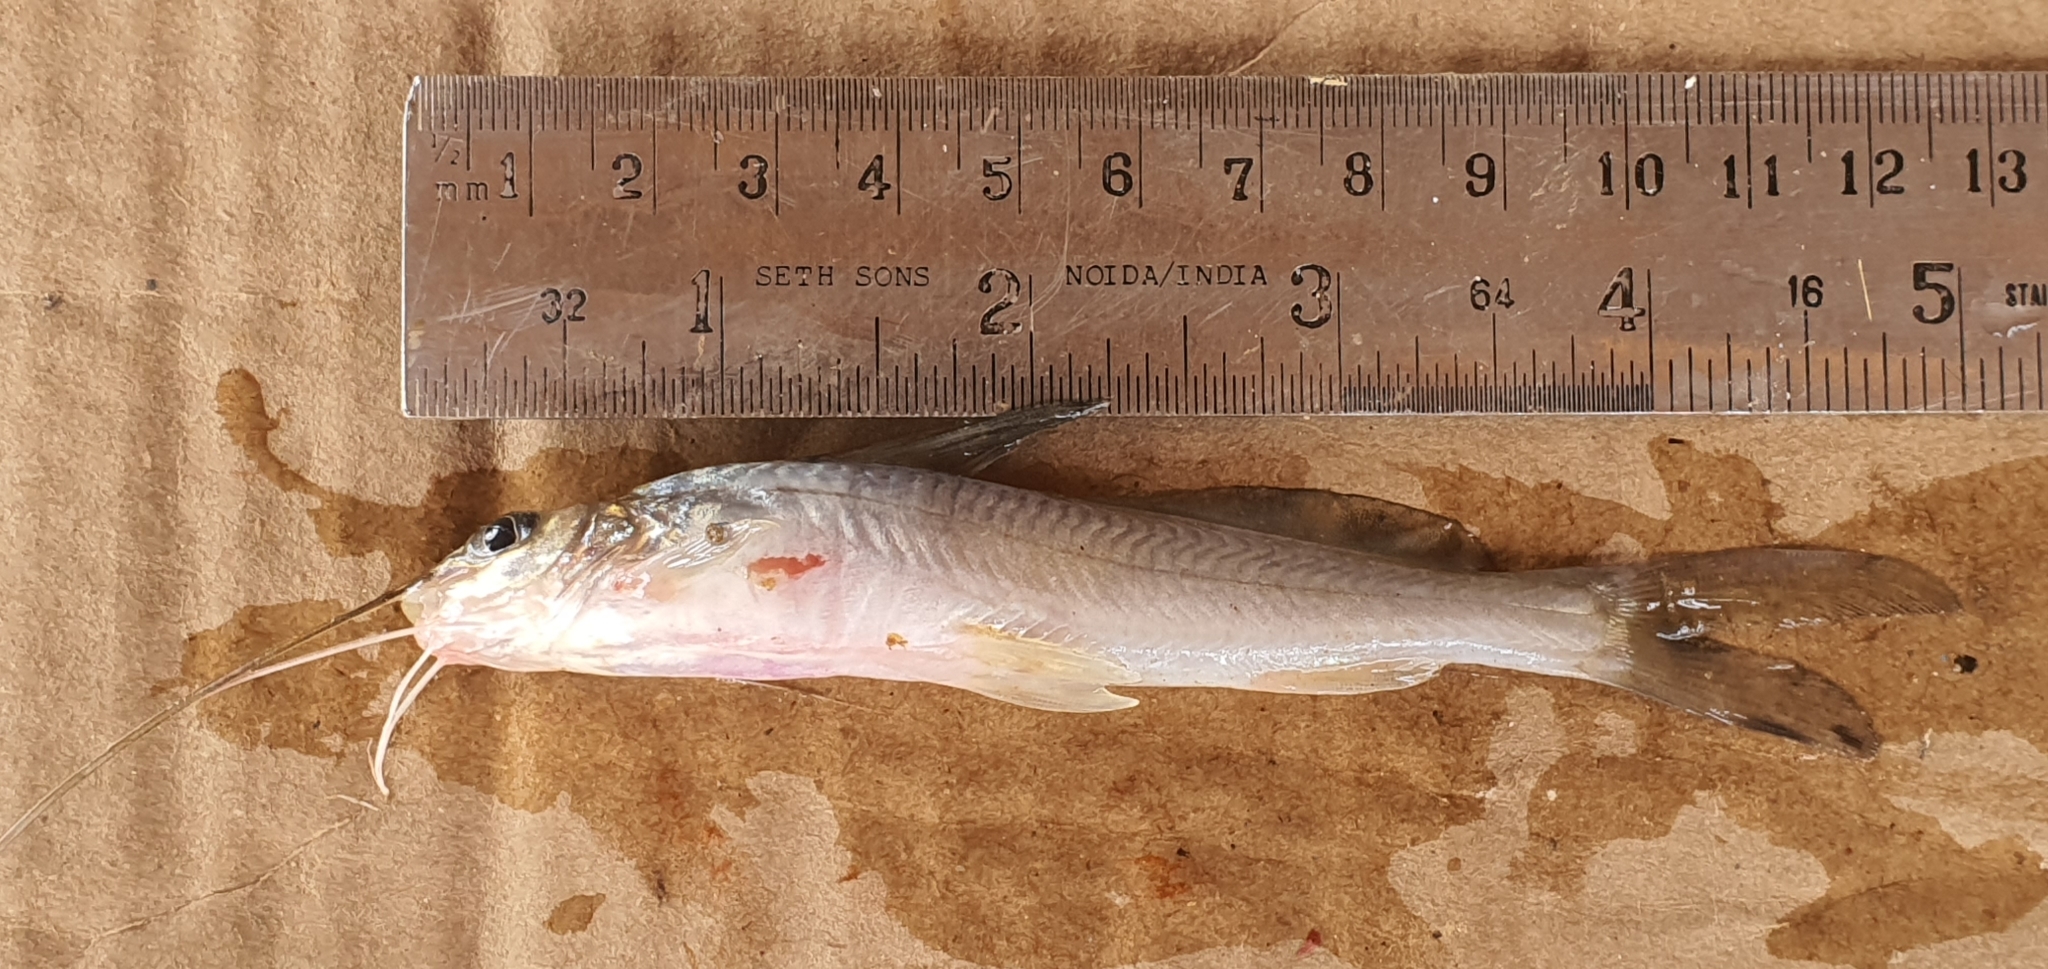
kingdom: Animalia
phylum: Chordata
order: Siluriformes
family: Bagridae
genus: Mystus
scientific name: Mystus cavasius
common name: Gangetic mystus
